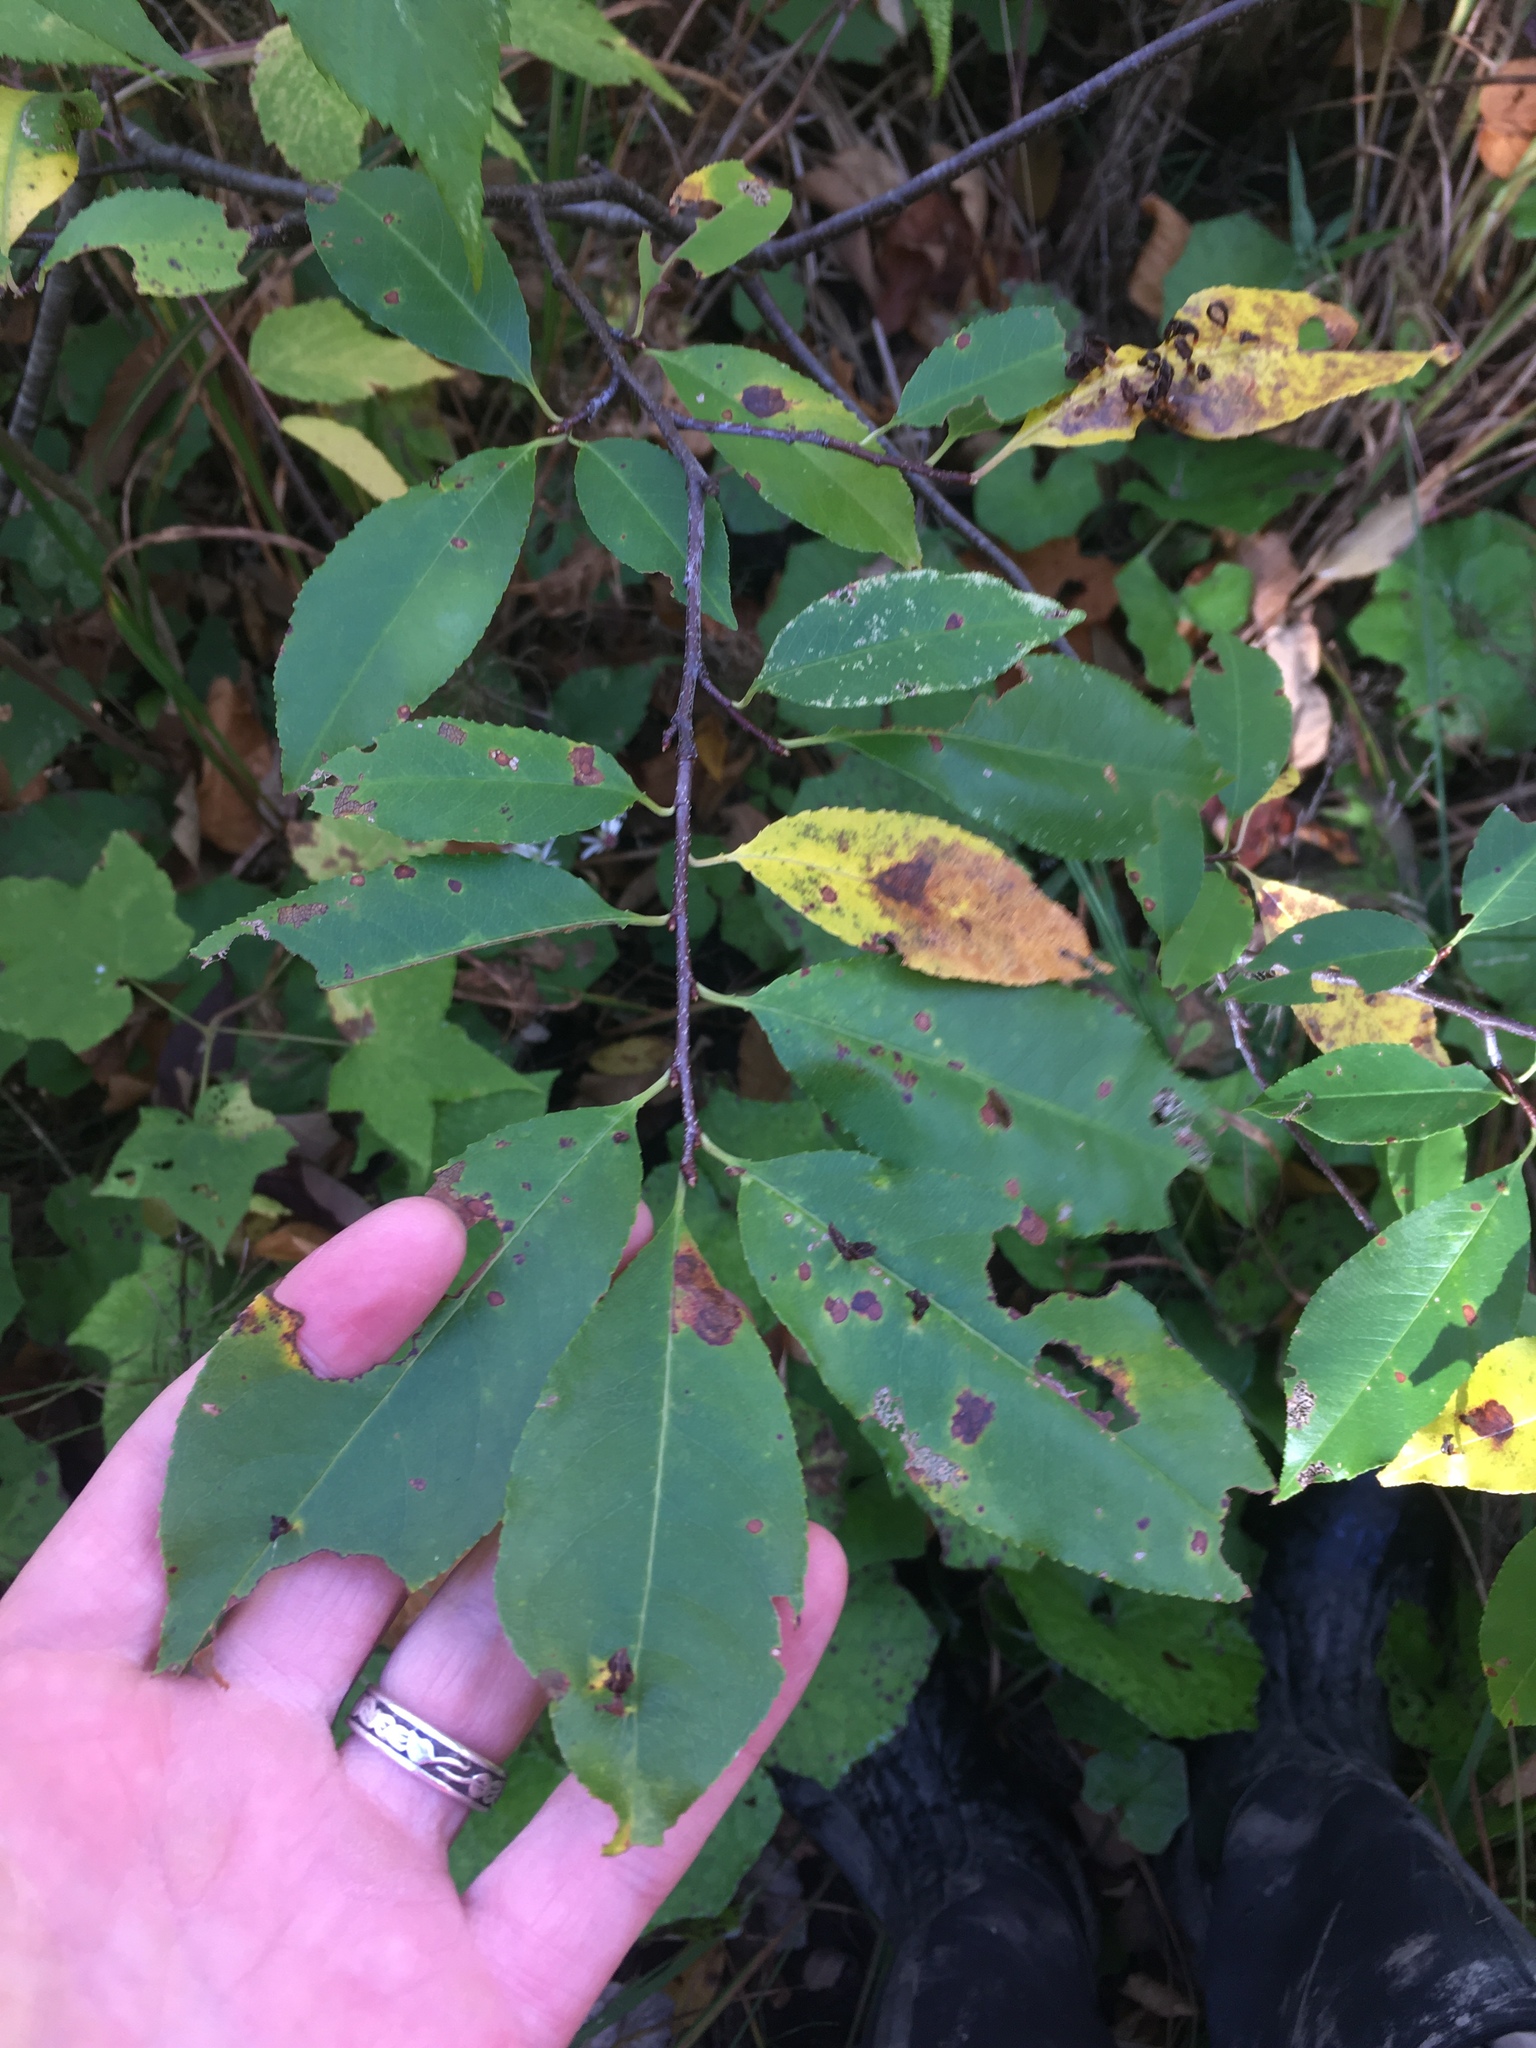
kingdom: Plantae
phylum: Tracheophyta
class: Magnoliopsida
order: Rosales
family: Rosaceae
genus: Prunus
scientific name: Prunus serotina
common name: Black cherry
